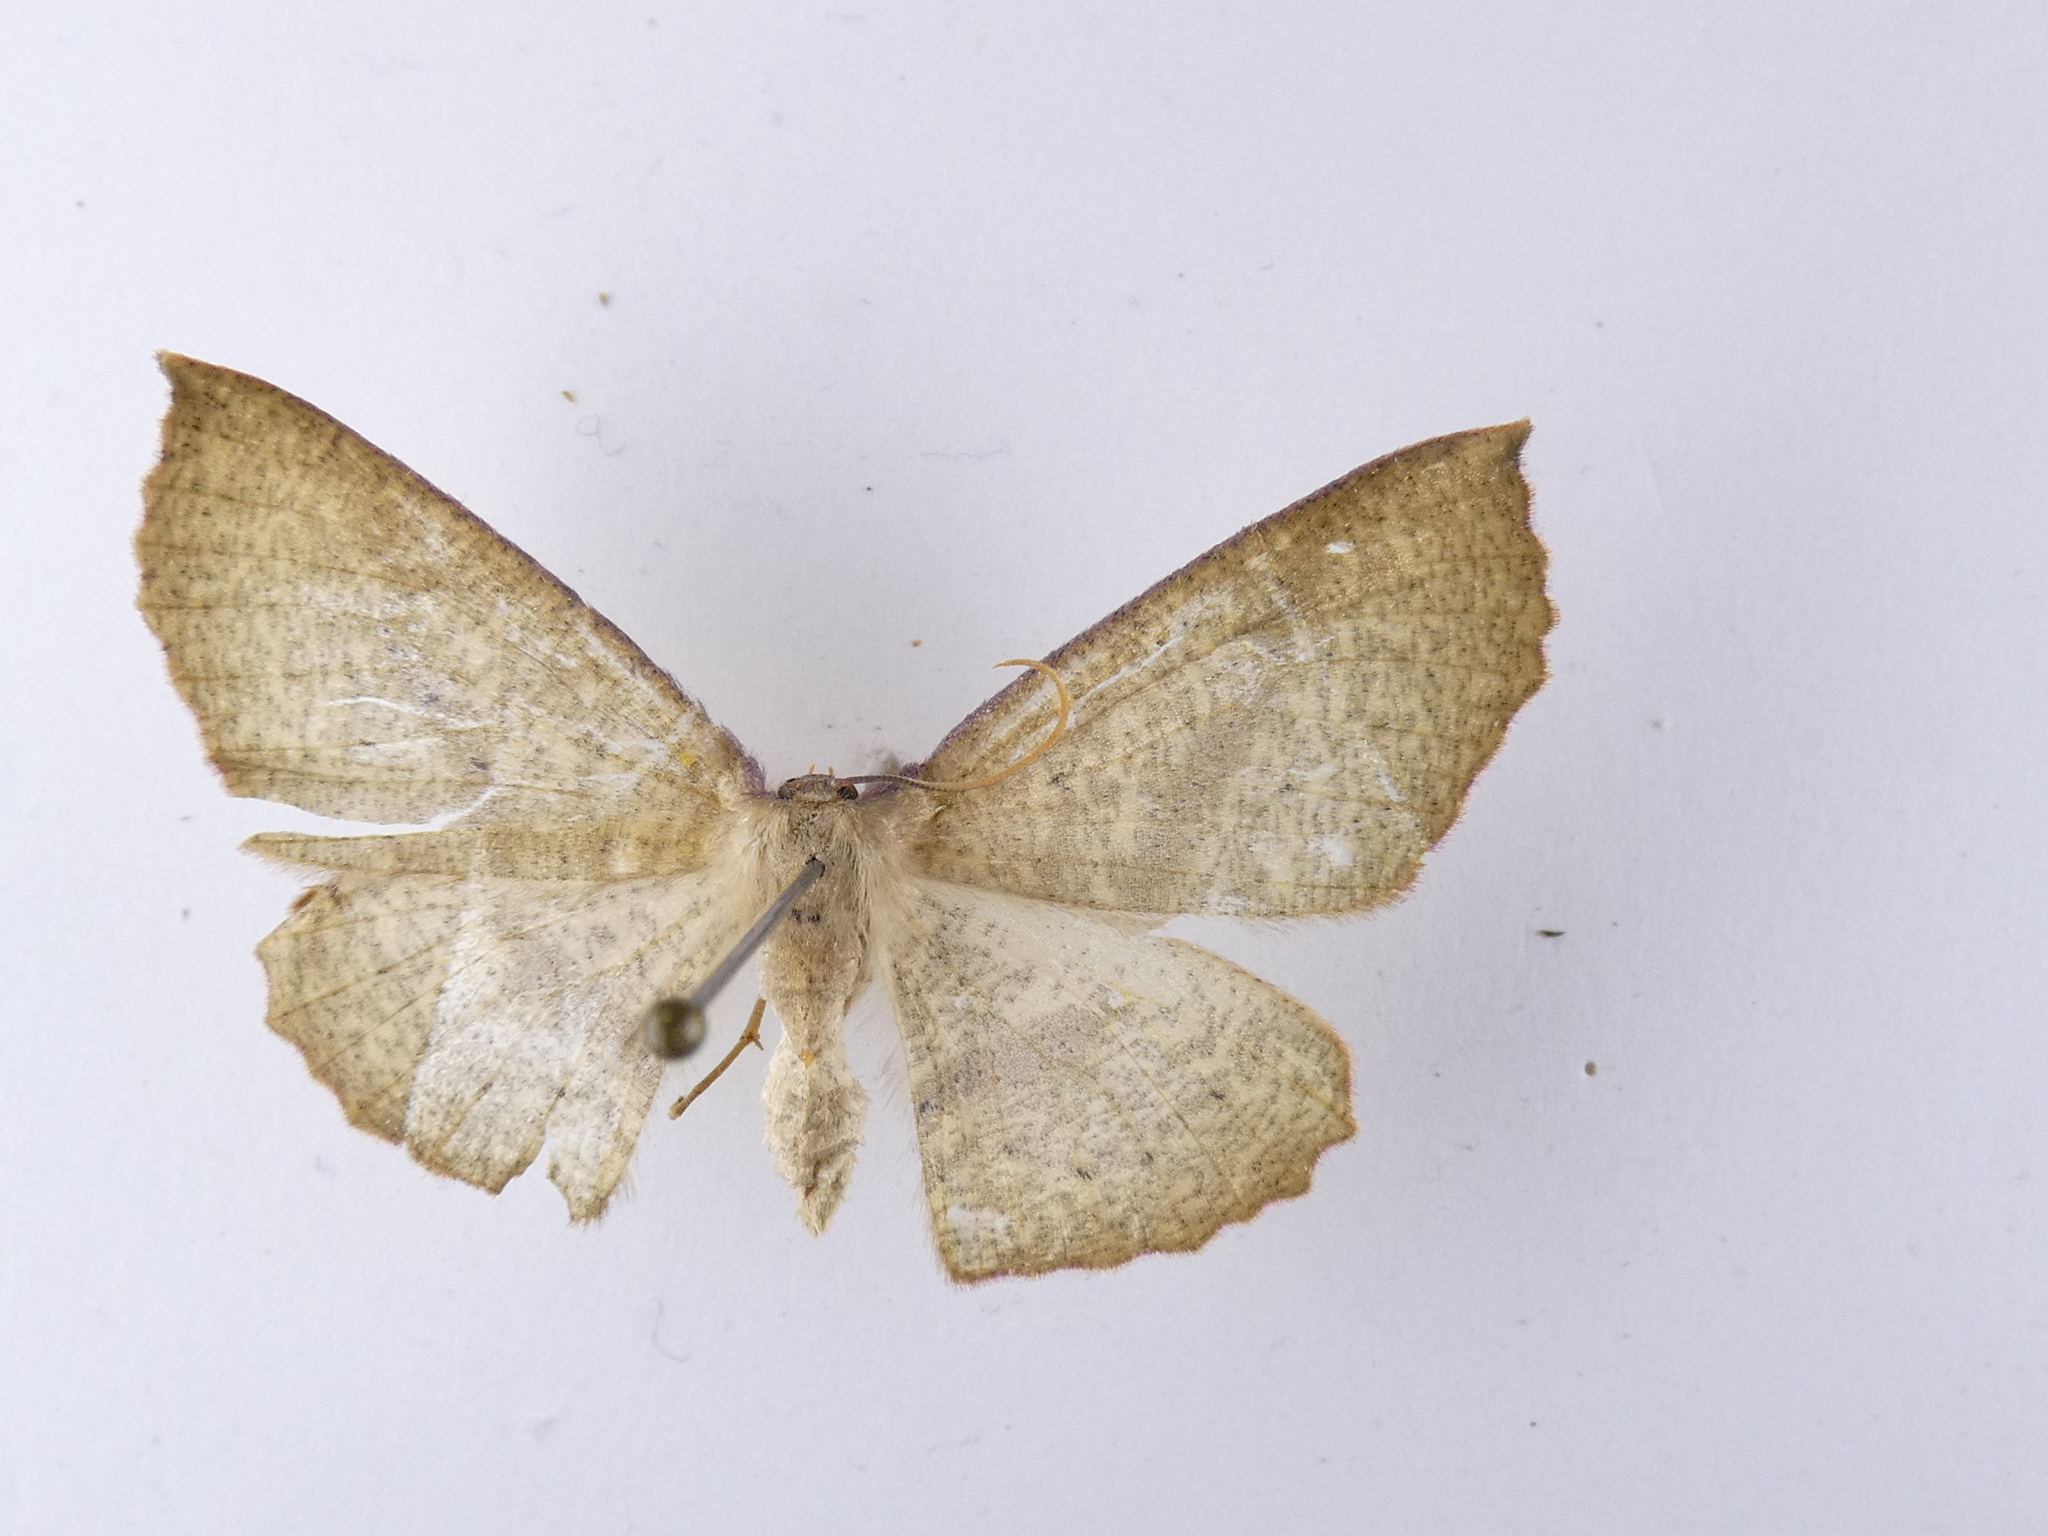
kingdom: Animalia
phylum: Arthropoda
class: Insecta
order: Lepidoptera
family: Geometridae
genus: Xyridacma
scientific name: Xyridacma ustaria
